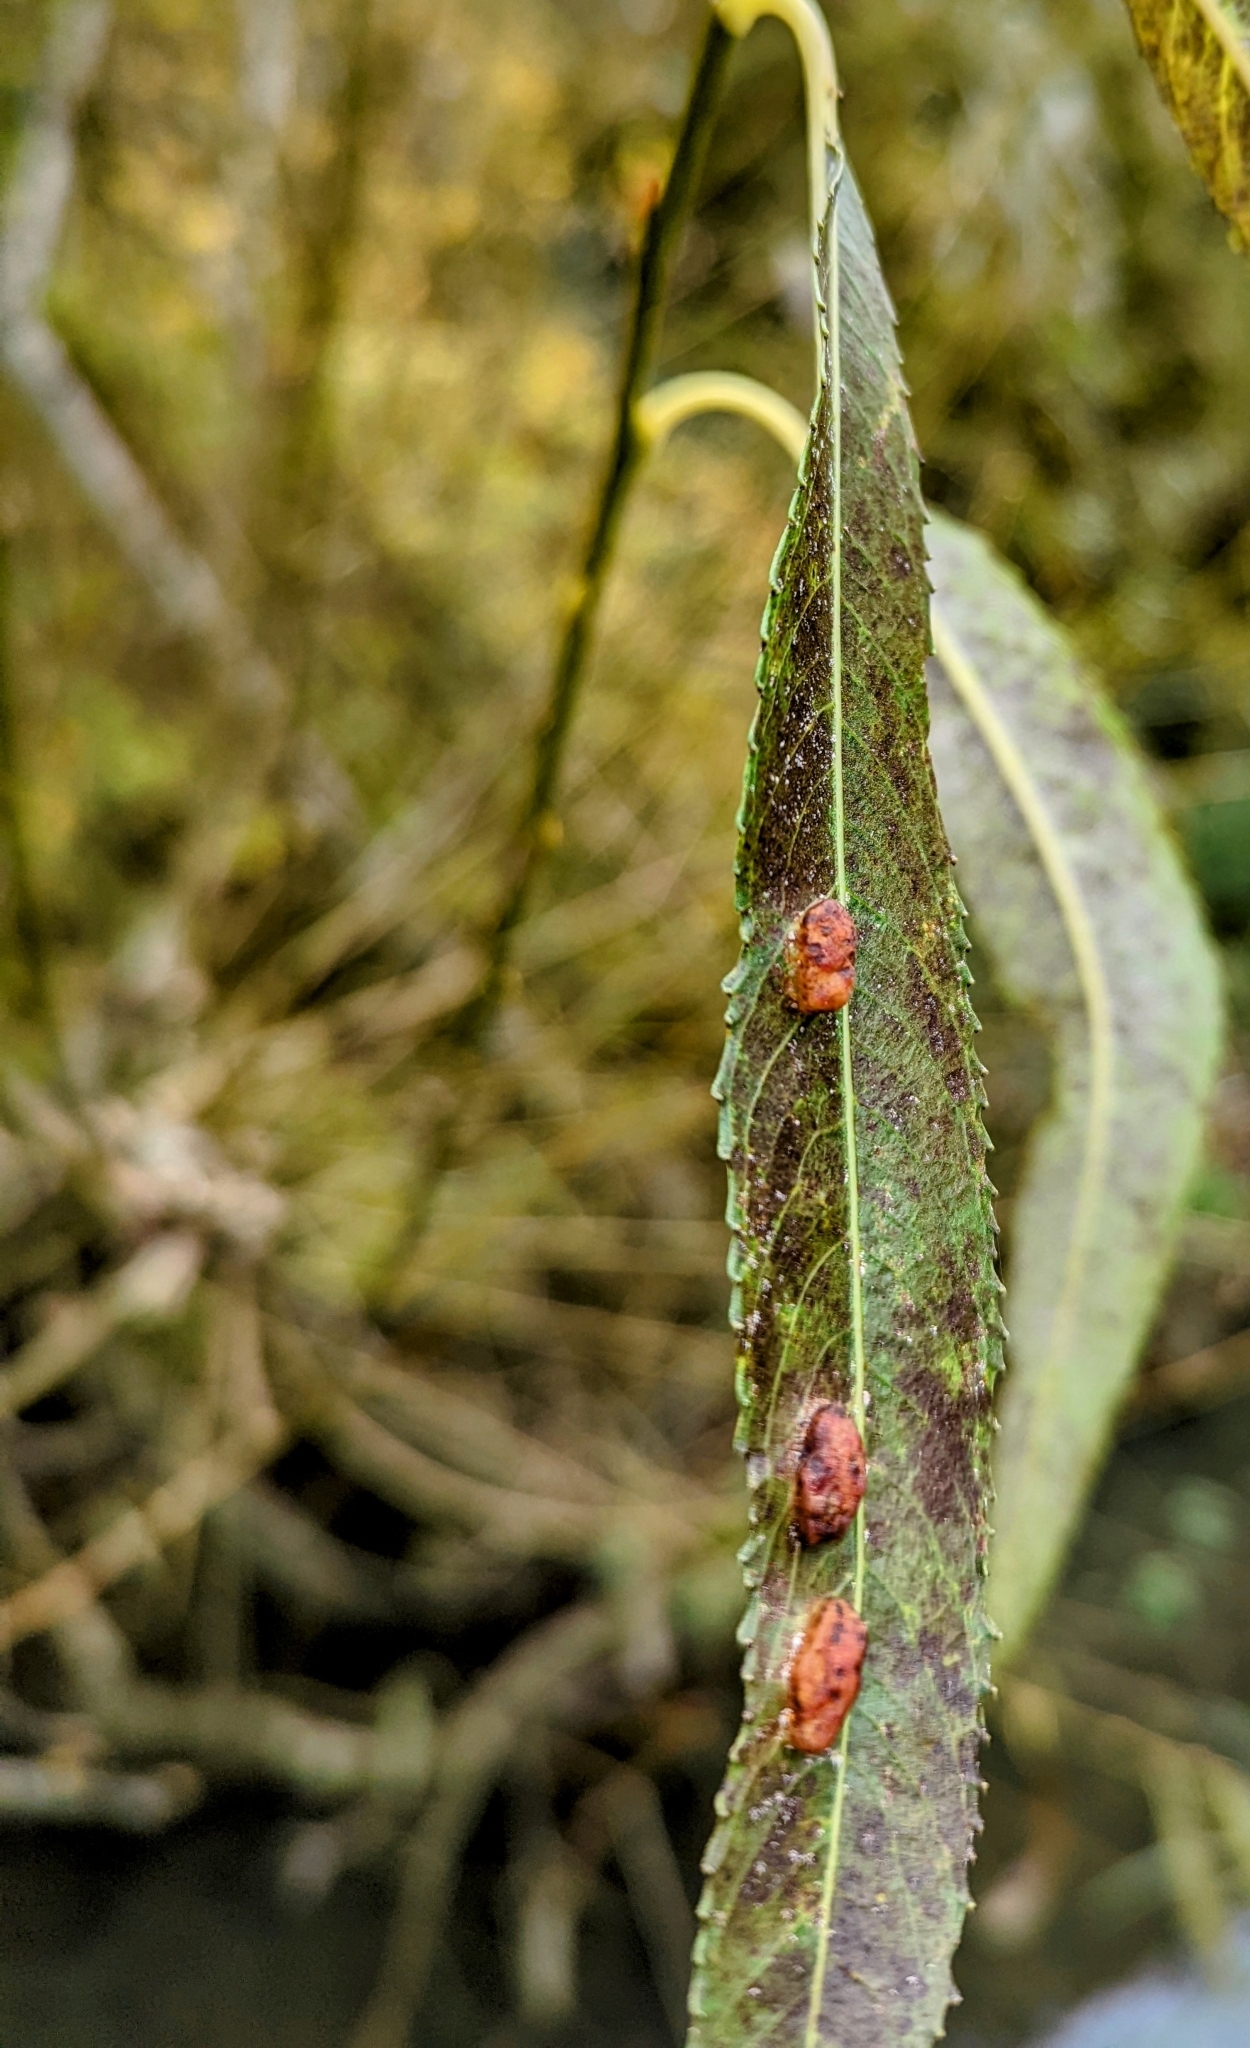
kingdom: Animalia
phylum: Arthropoda
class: Insecta
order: Hymenoptera
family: Tenthredinidae
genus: Pontania
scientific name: Pontania proxima
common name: Common sawfly
